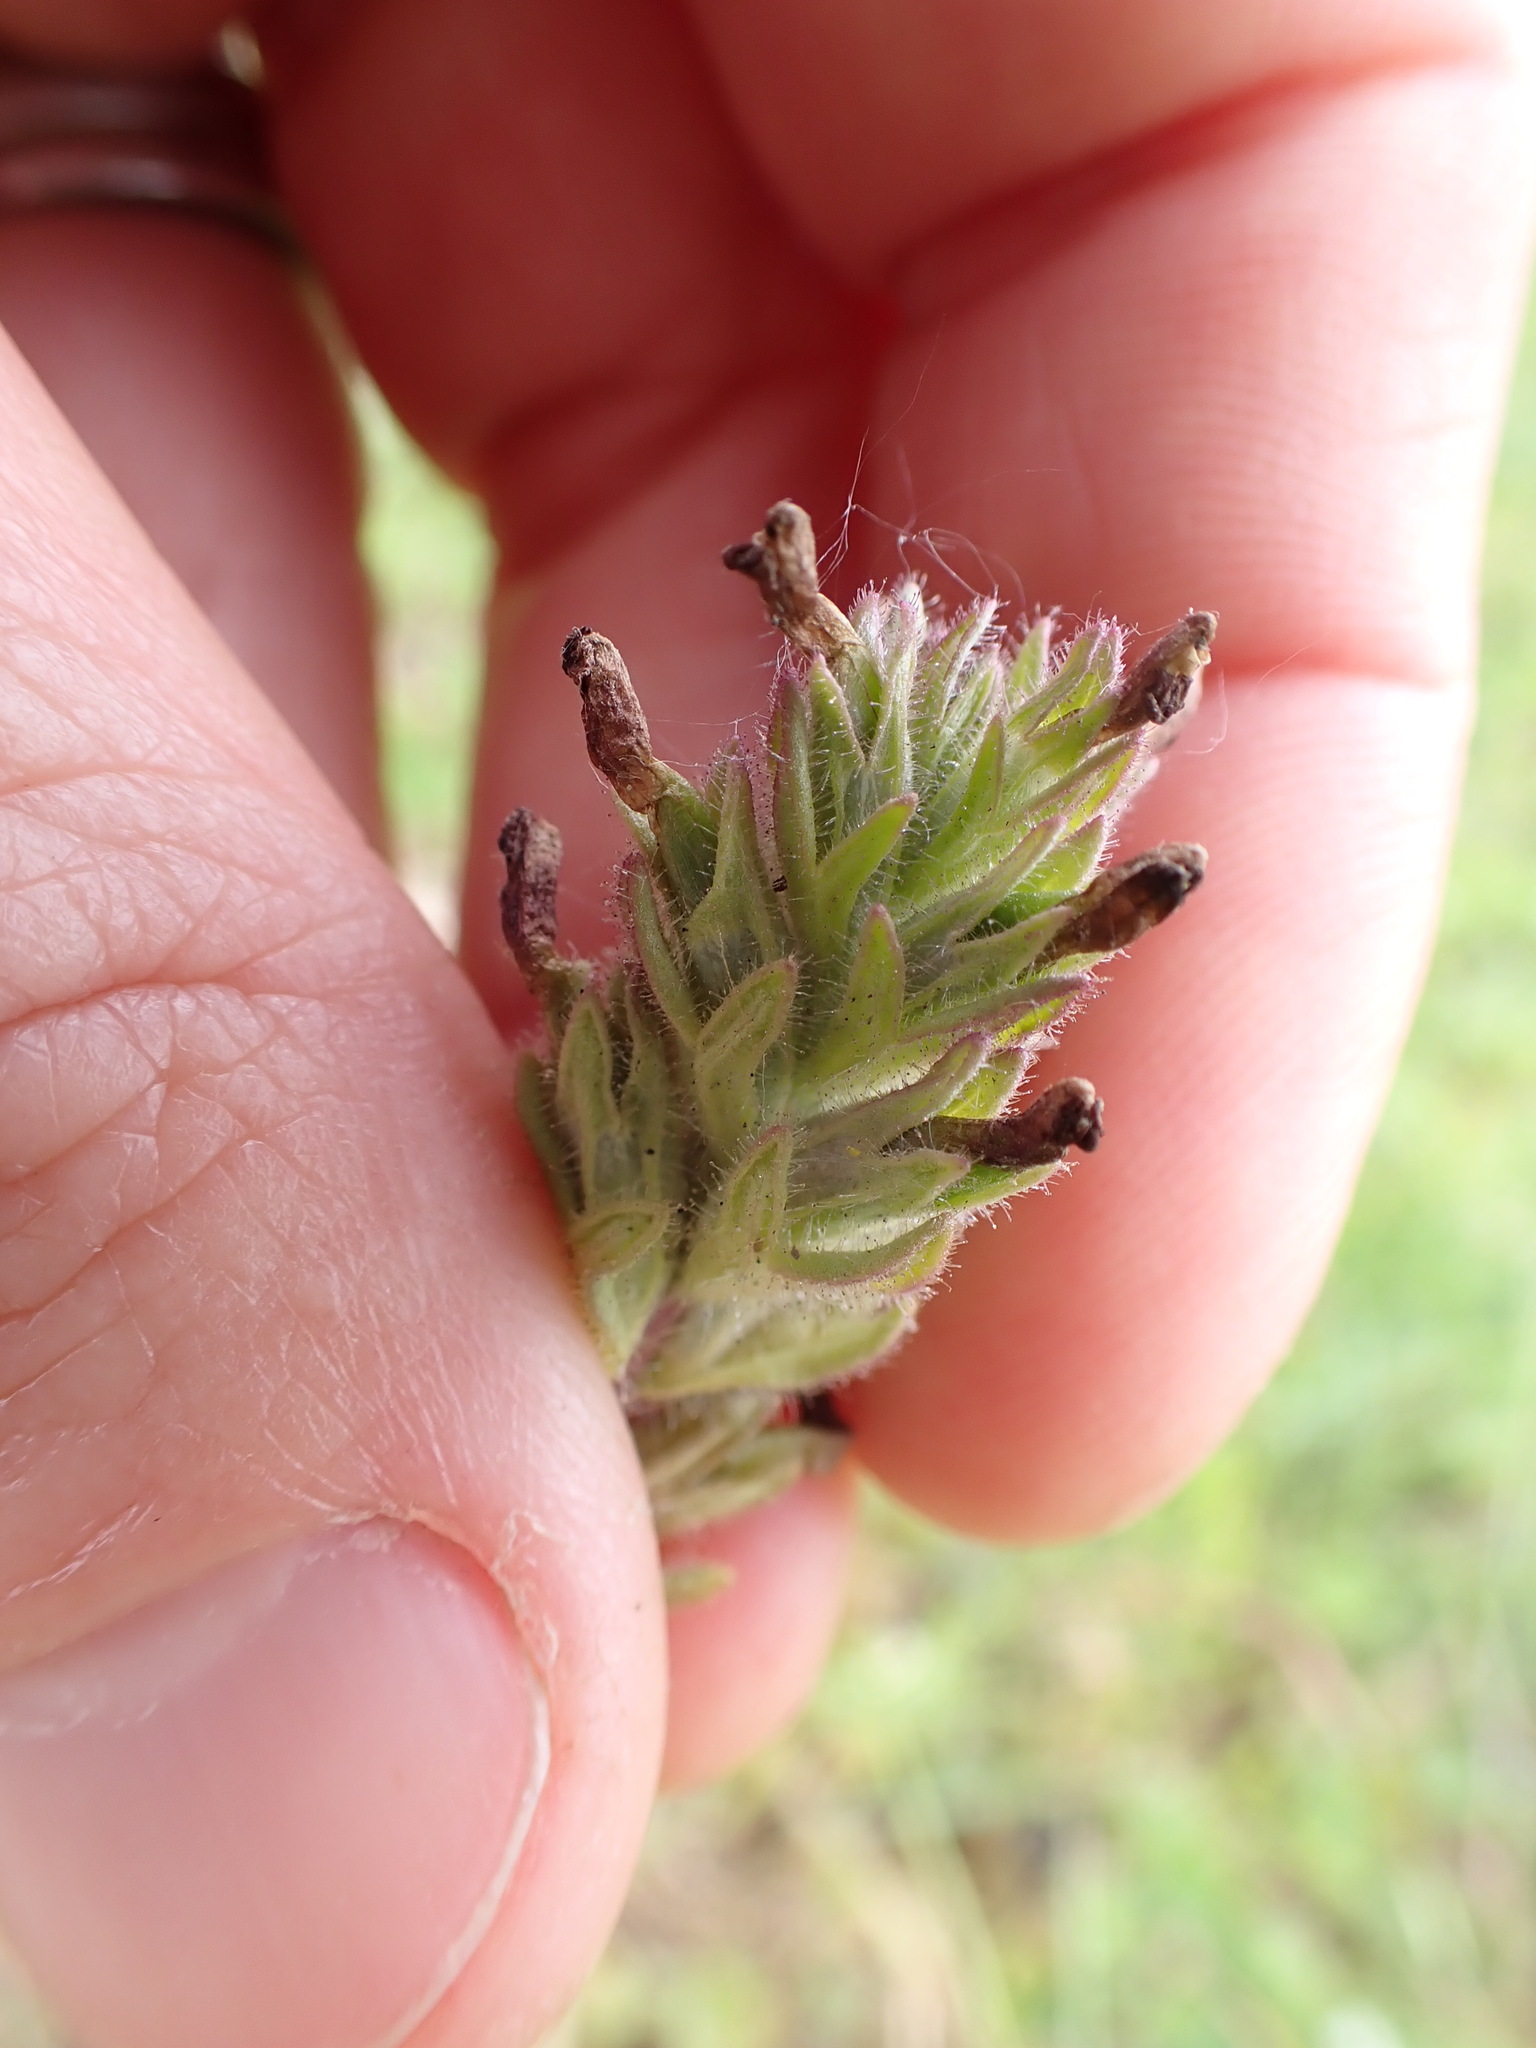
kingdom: Plantae
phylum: Tracheophyta
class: Magnoliopsida
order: Lamiales
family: Orobanchaceae
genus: Parentucellia
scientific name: Parentucellia latifolia
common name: Broadleaf glandweed
